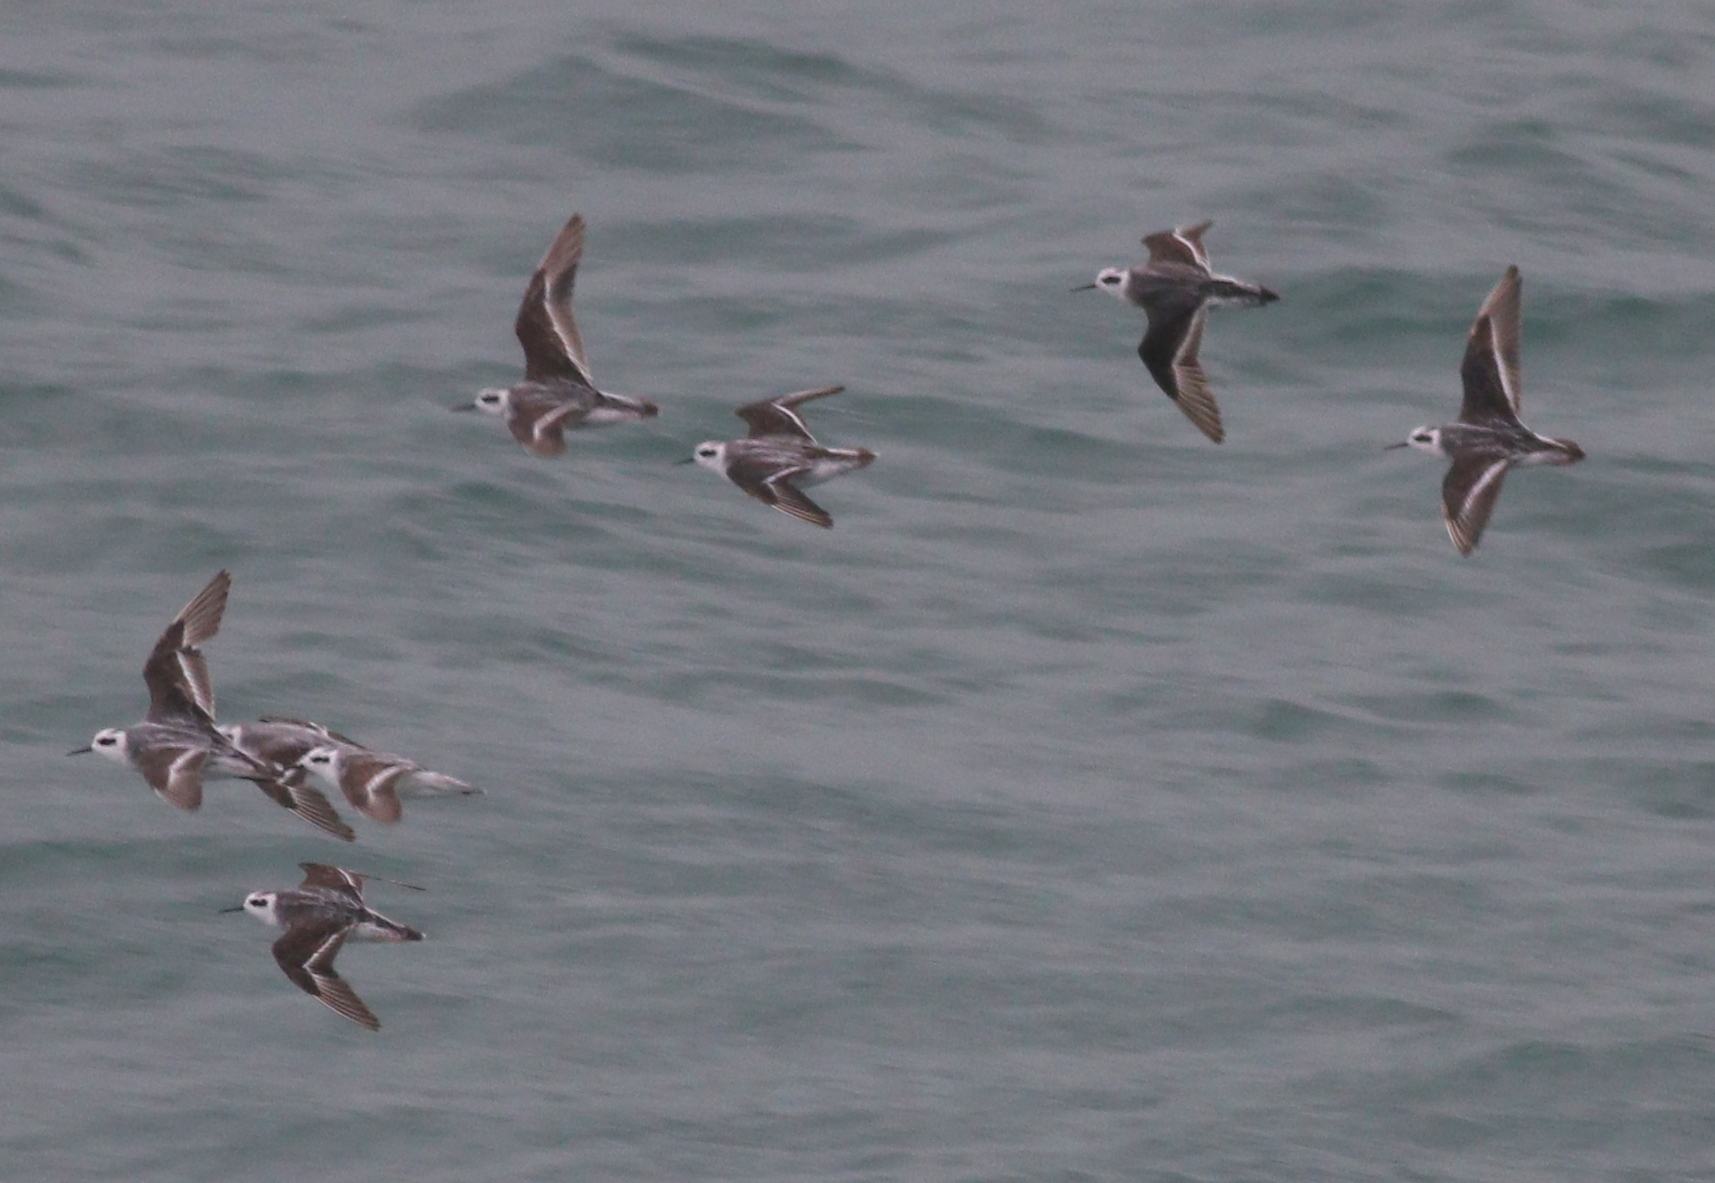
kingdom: Animalia
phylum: Chordata
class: Aves
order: Charadriiformes
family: Scolopacidae
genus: Phalaropus
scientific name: Phalaropus lobatus
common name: Red-necked phalarope
